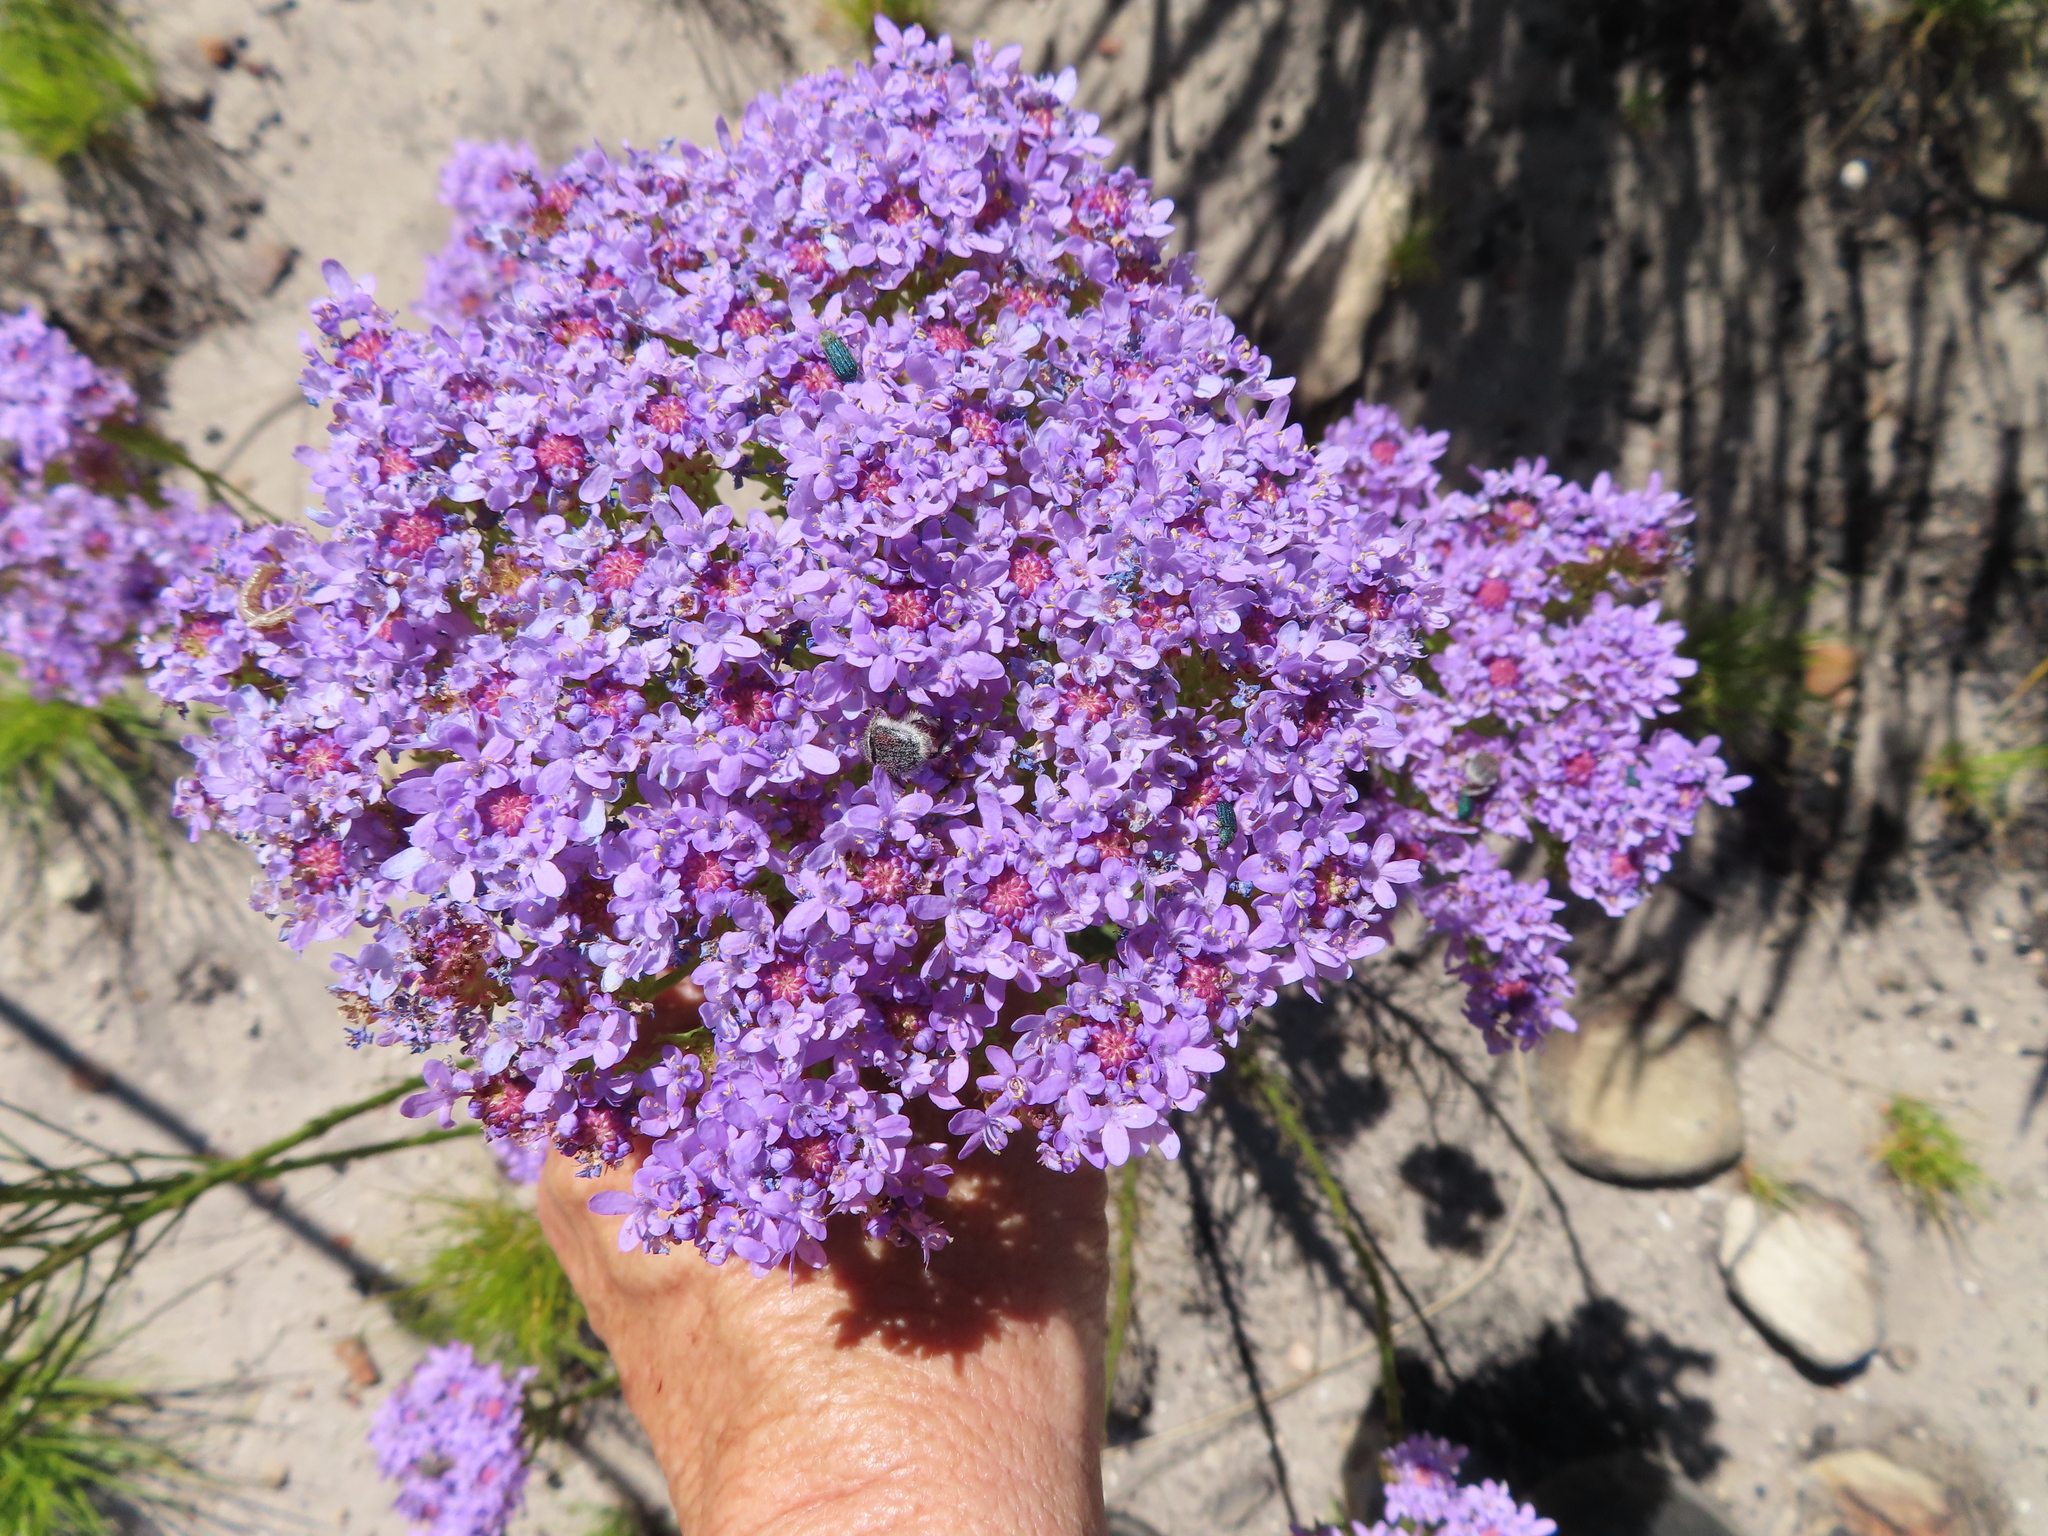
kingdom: Plantae
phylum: Tracheophyta
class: Magnoliopsida
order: Lamiales
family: Scrophulariaceae
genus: Pseudoselago
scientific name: Pseudoselago spuria
